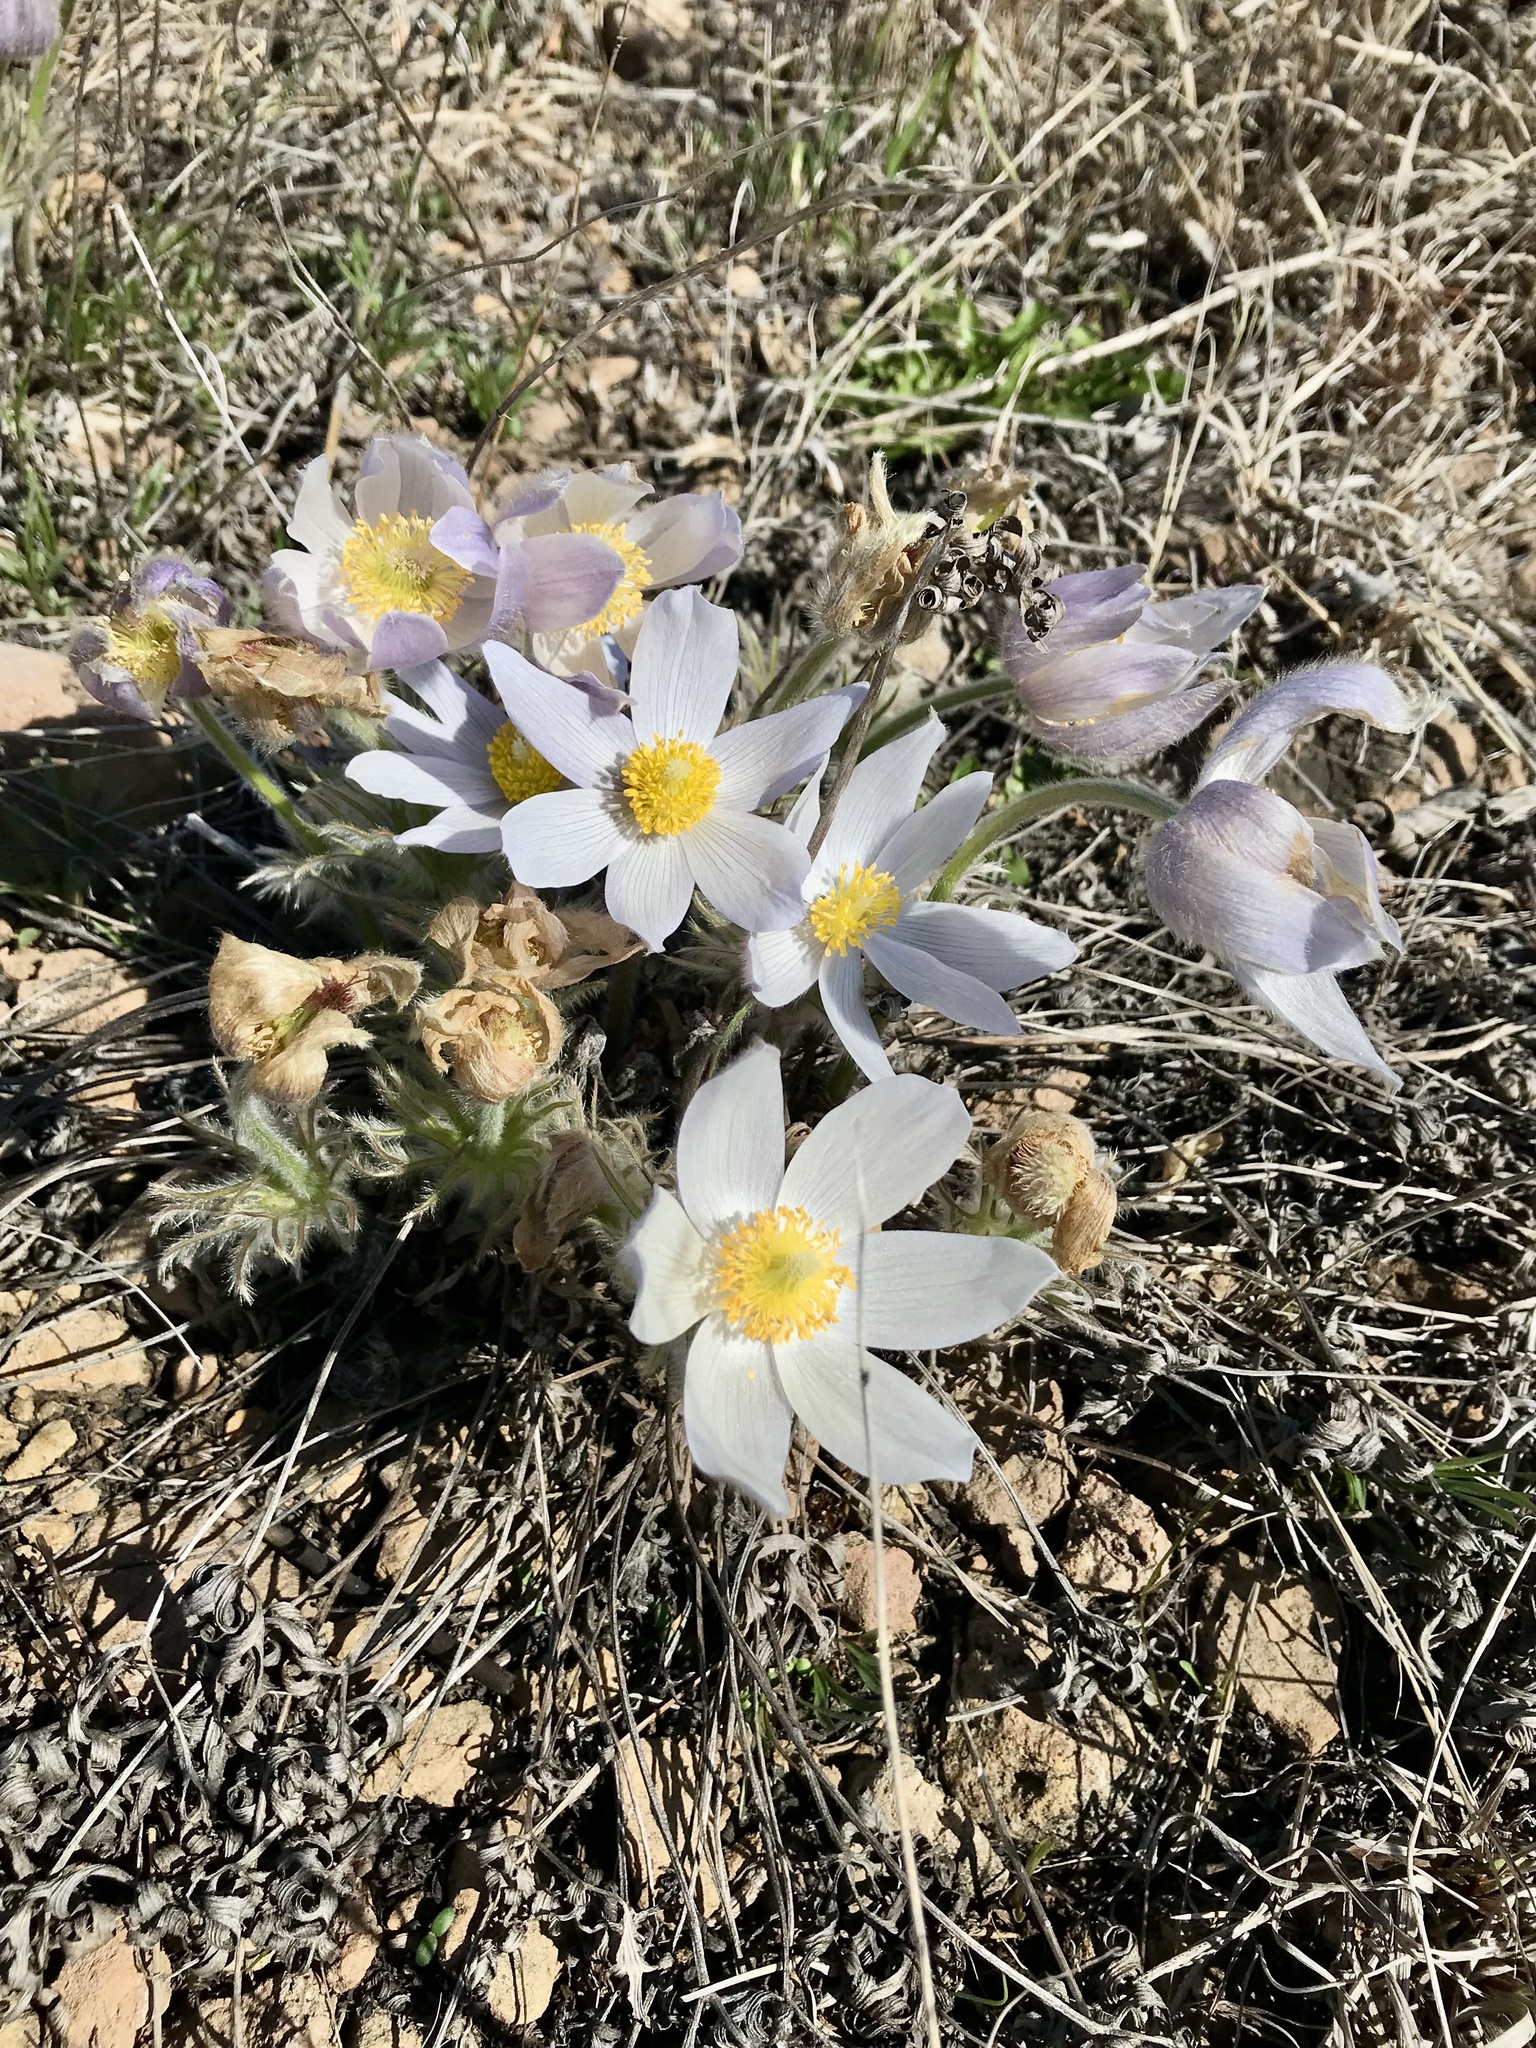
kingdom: Plantae
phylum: Tracheophyta
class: Magnoliopsida
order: Ranunculales
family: Ranunculaceae
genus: Pulsatilla
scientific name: Pulsatilla nuttalliana
